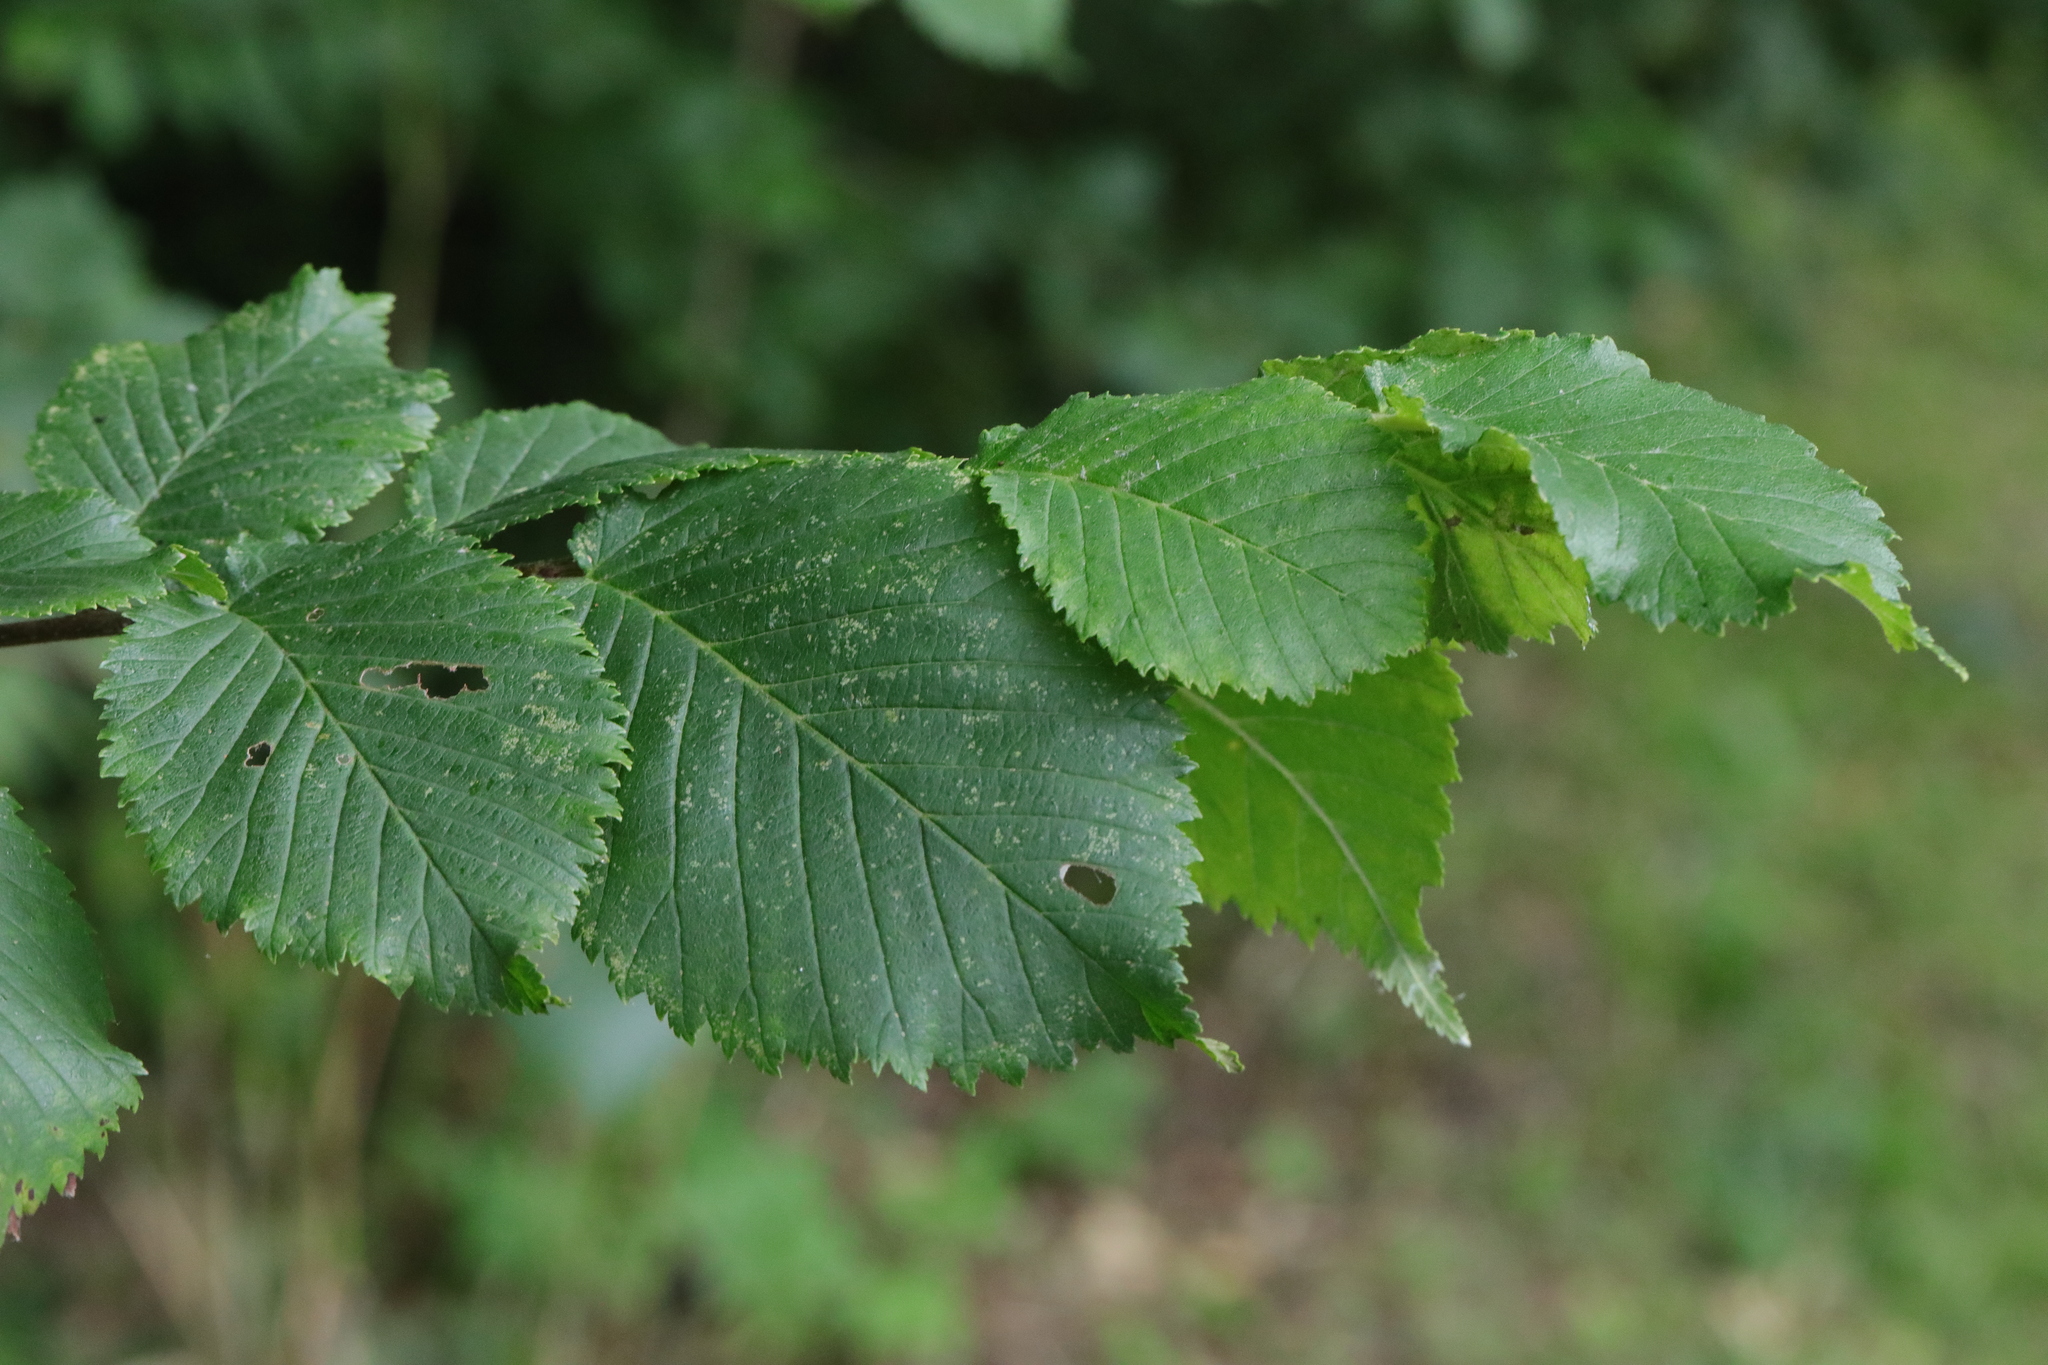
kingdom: Plantae
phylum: Tracheophyta
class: Magnoliopsida
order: Apiales
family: Apiaceae
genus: Aegopodium
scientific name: Aegopodium podagraria
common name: Ground-elder
